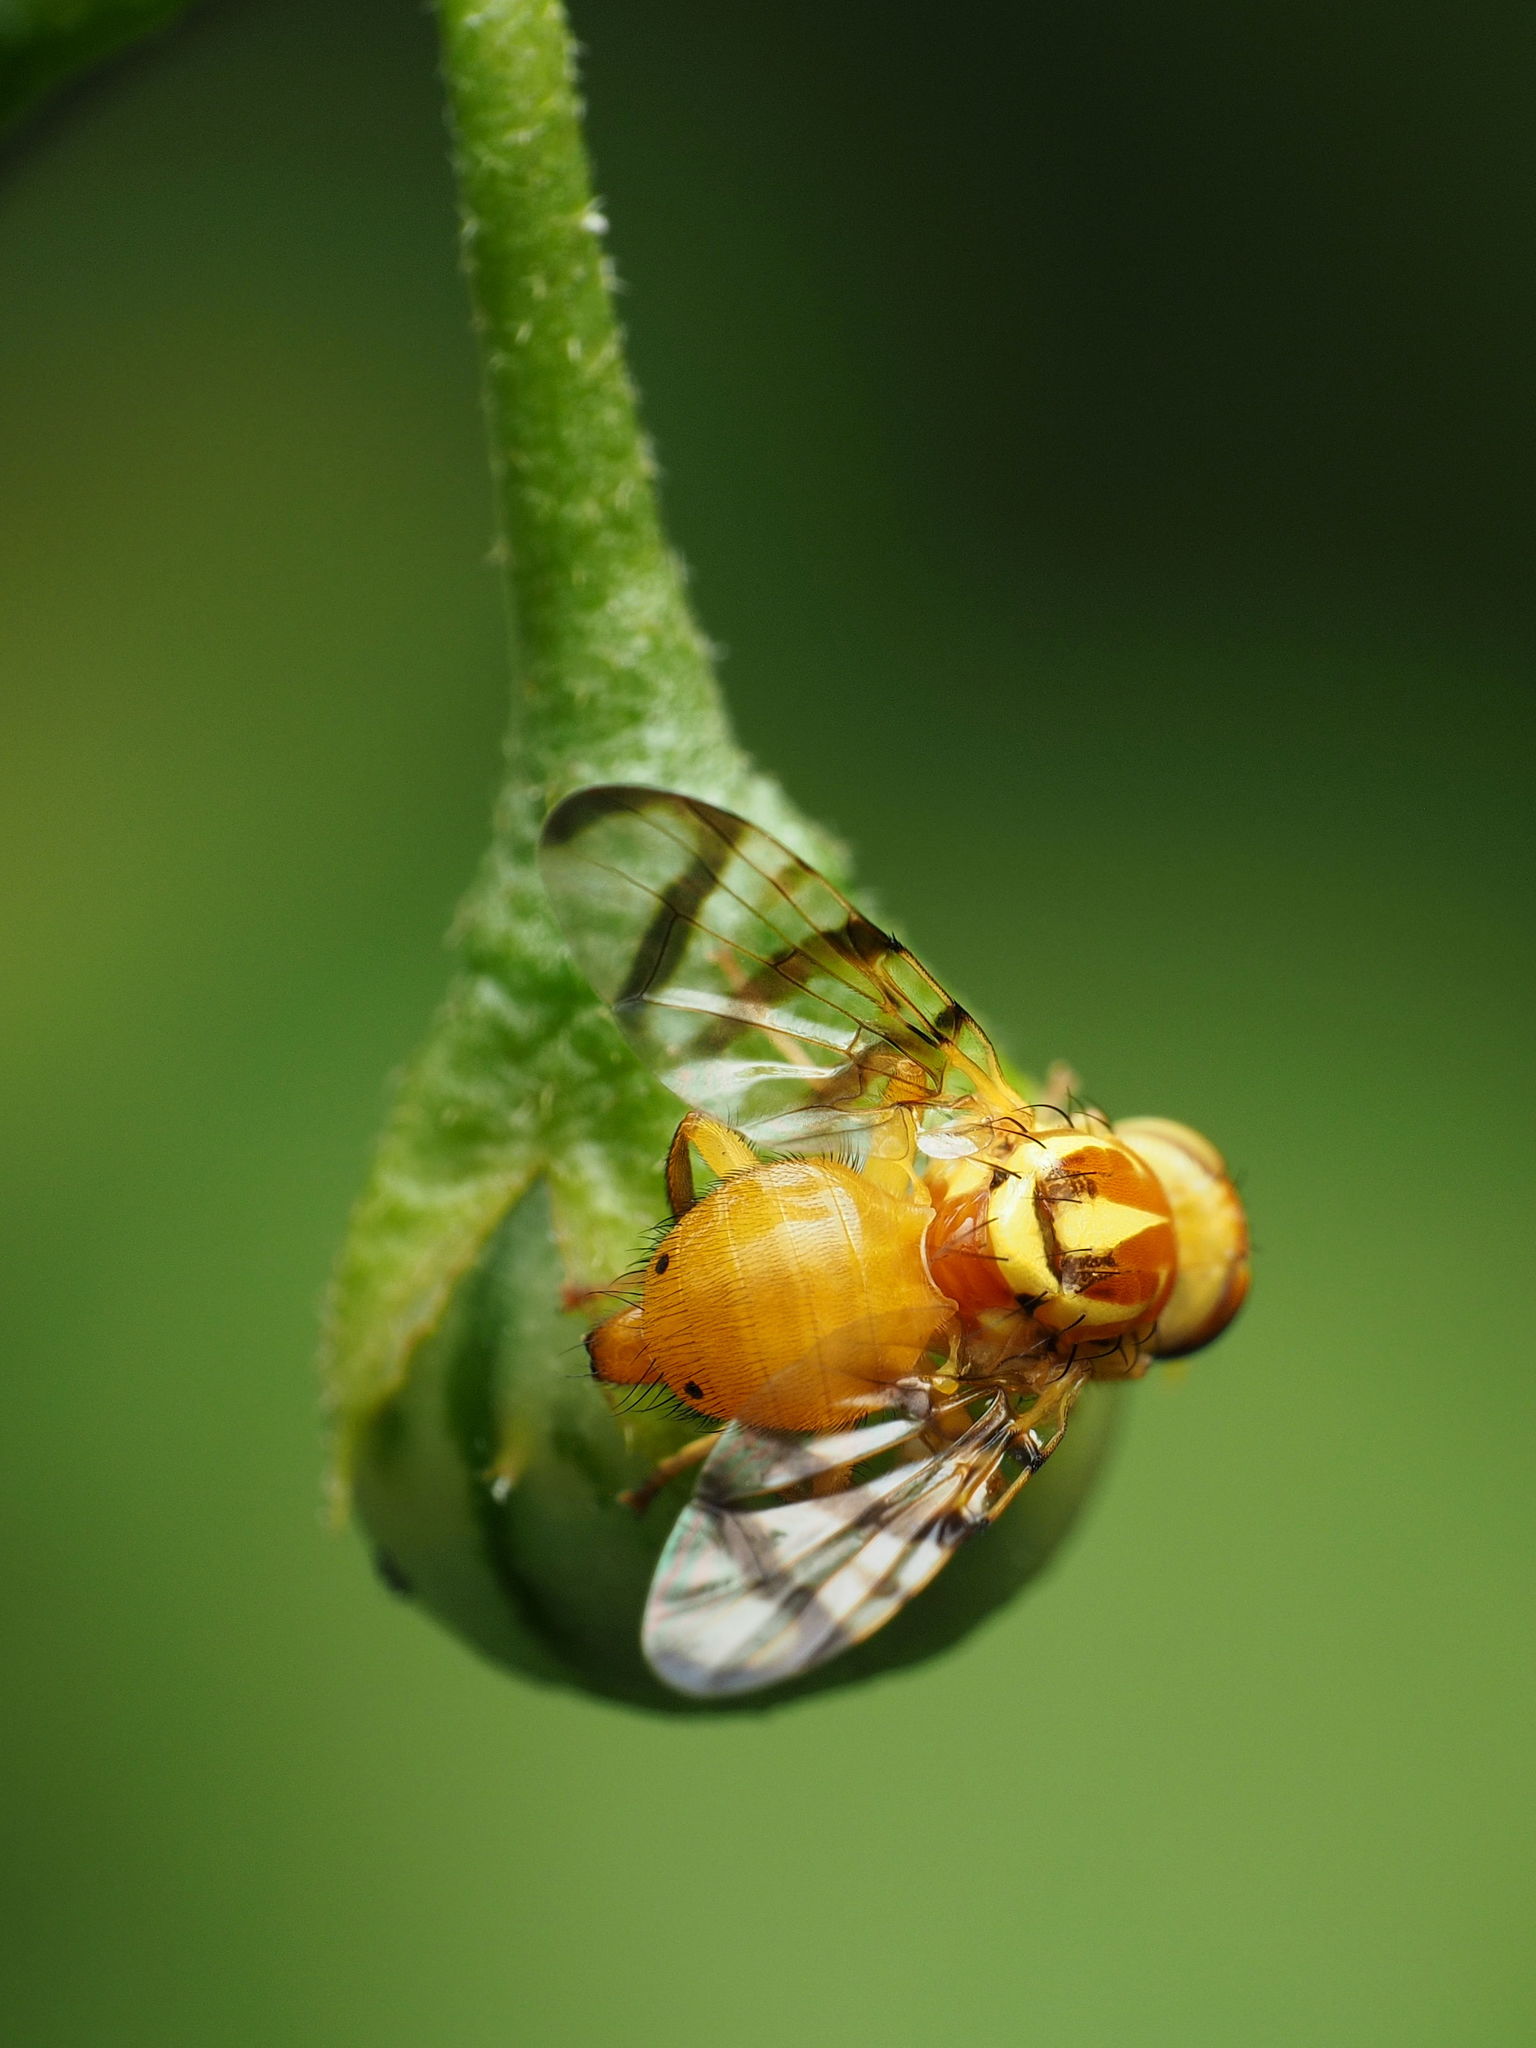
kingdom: Animalia
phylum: Arthropoda
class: Insecta
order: Diptera
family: Tephritidae
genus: Zonosemata
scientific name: Zonosemata electa
